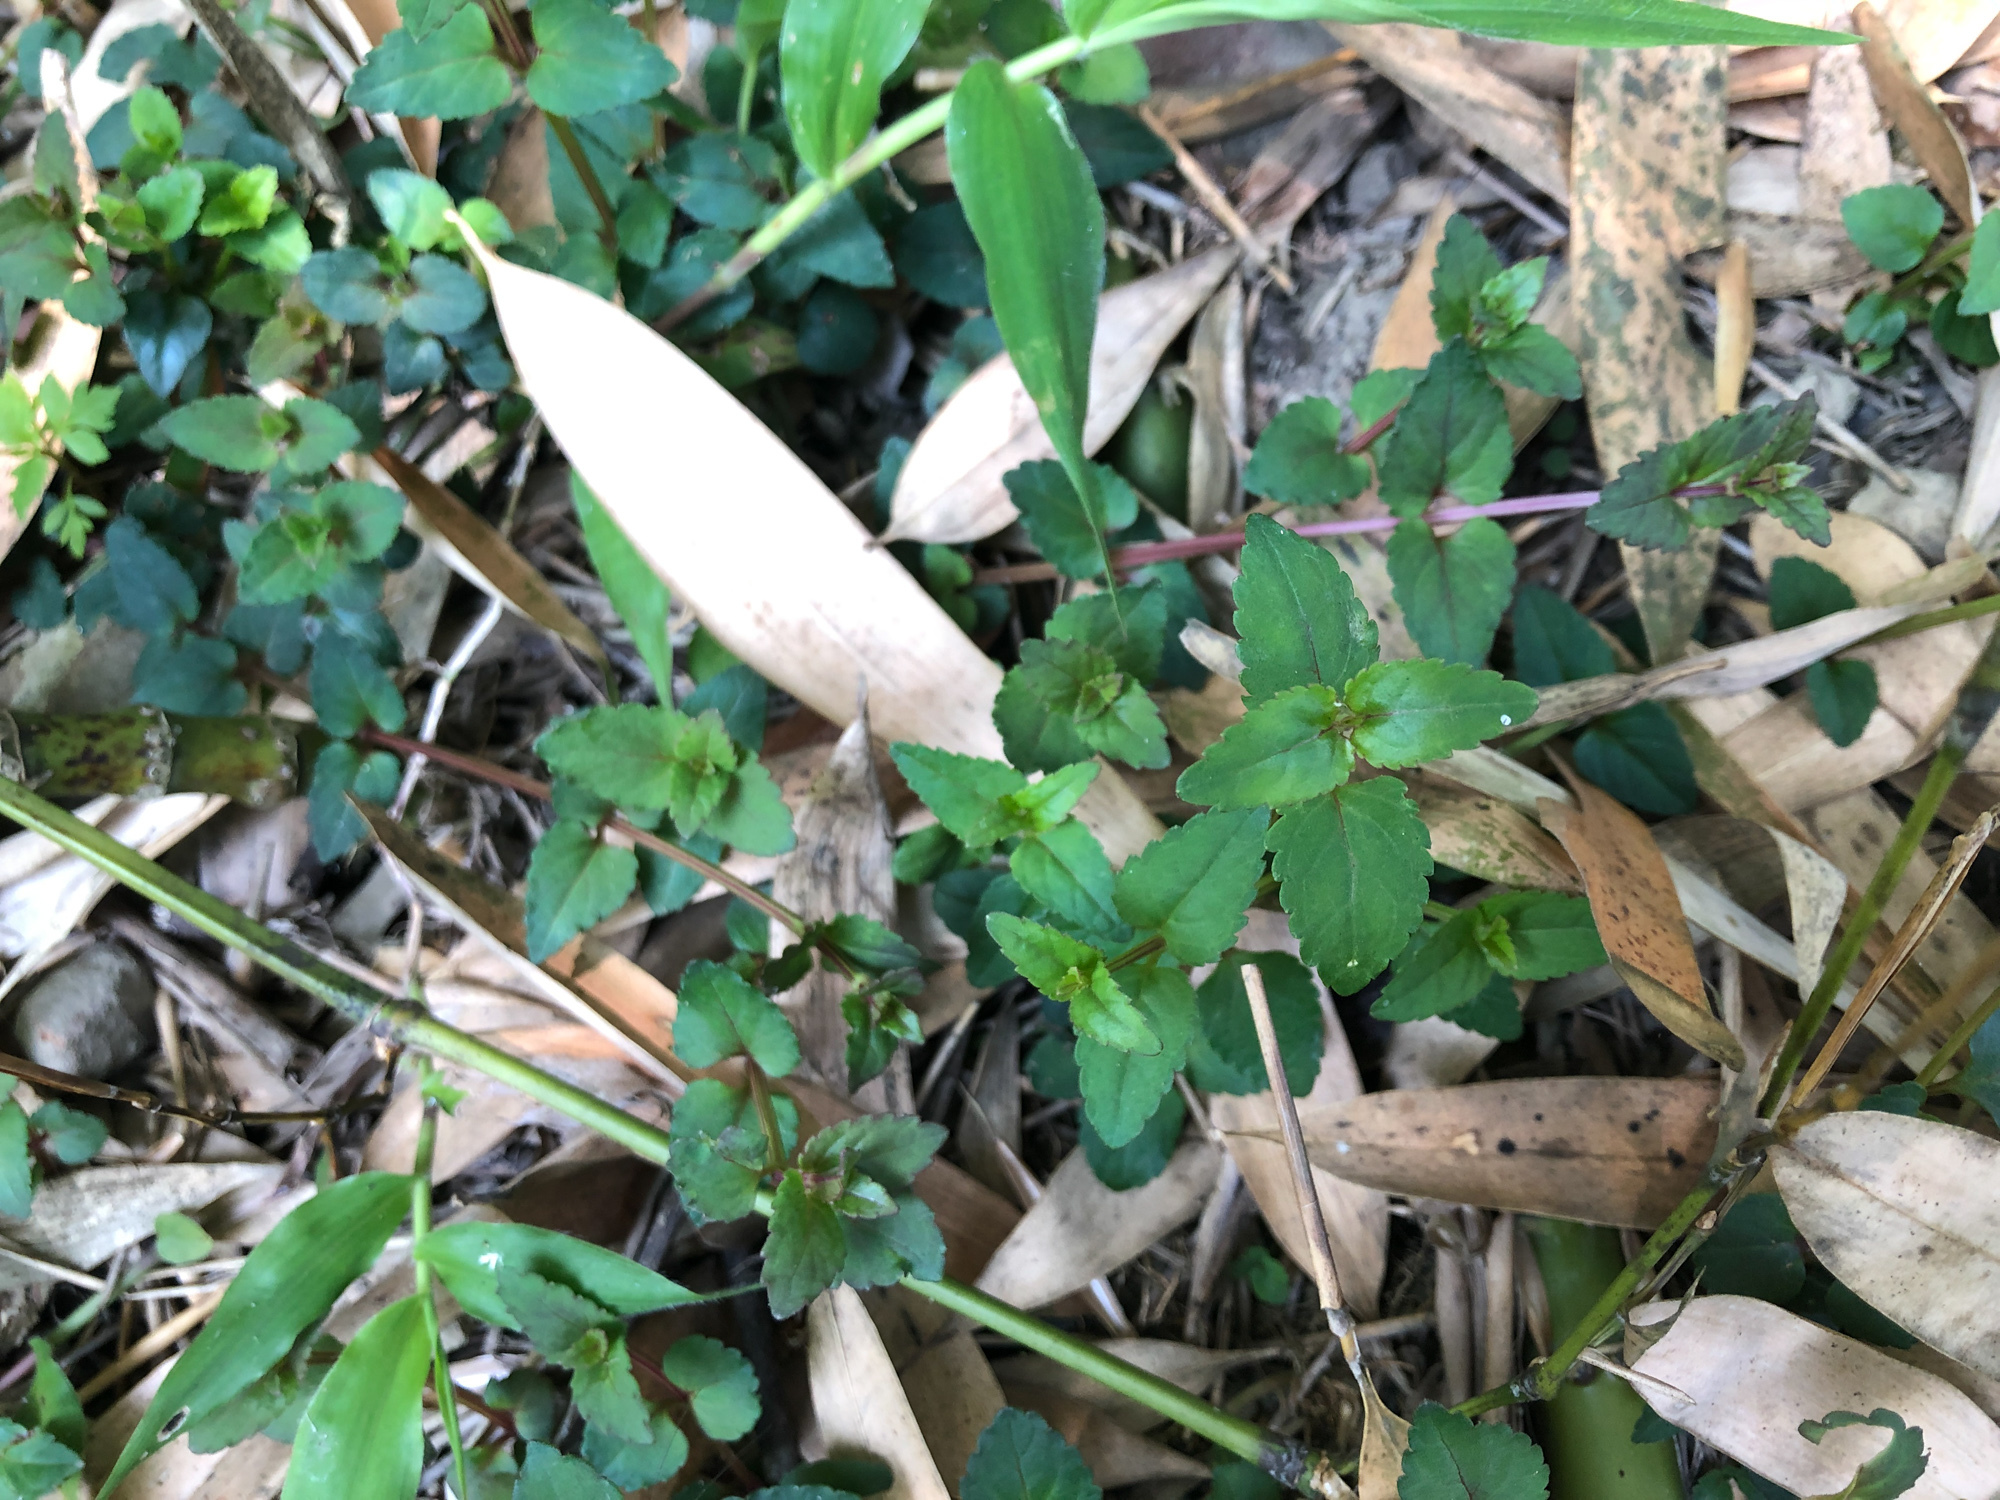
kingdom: Plantae
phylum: Tracheophyta
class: Magnoliopsida
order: Lamiales
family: Linderniaceae
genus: Torenia
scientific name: Torenia concolor
